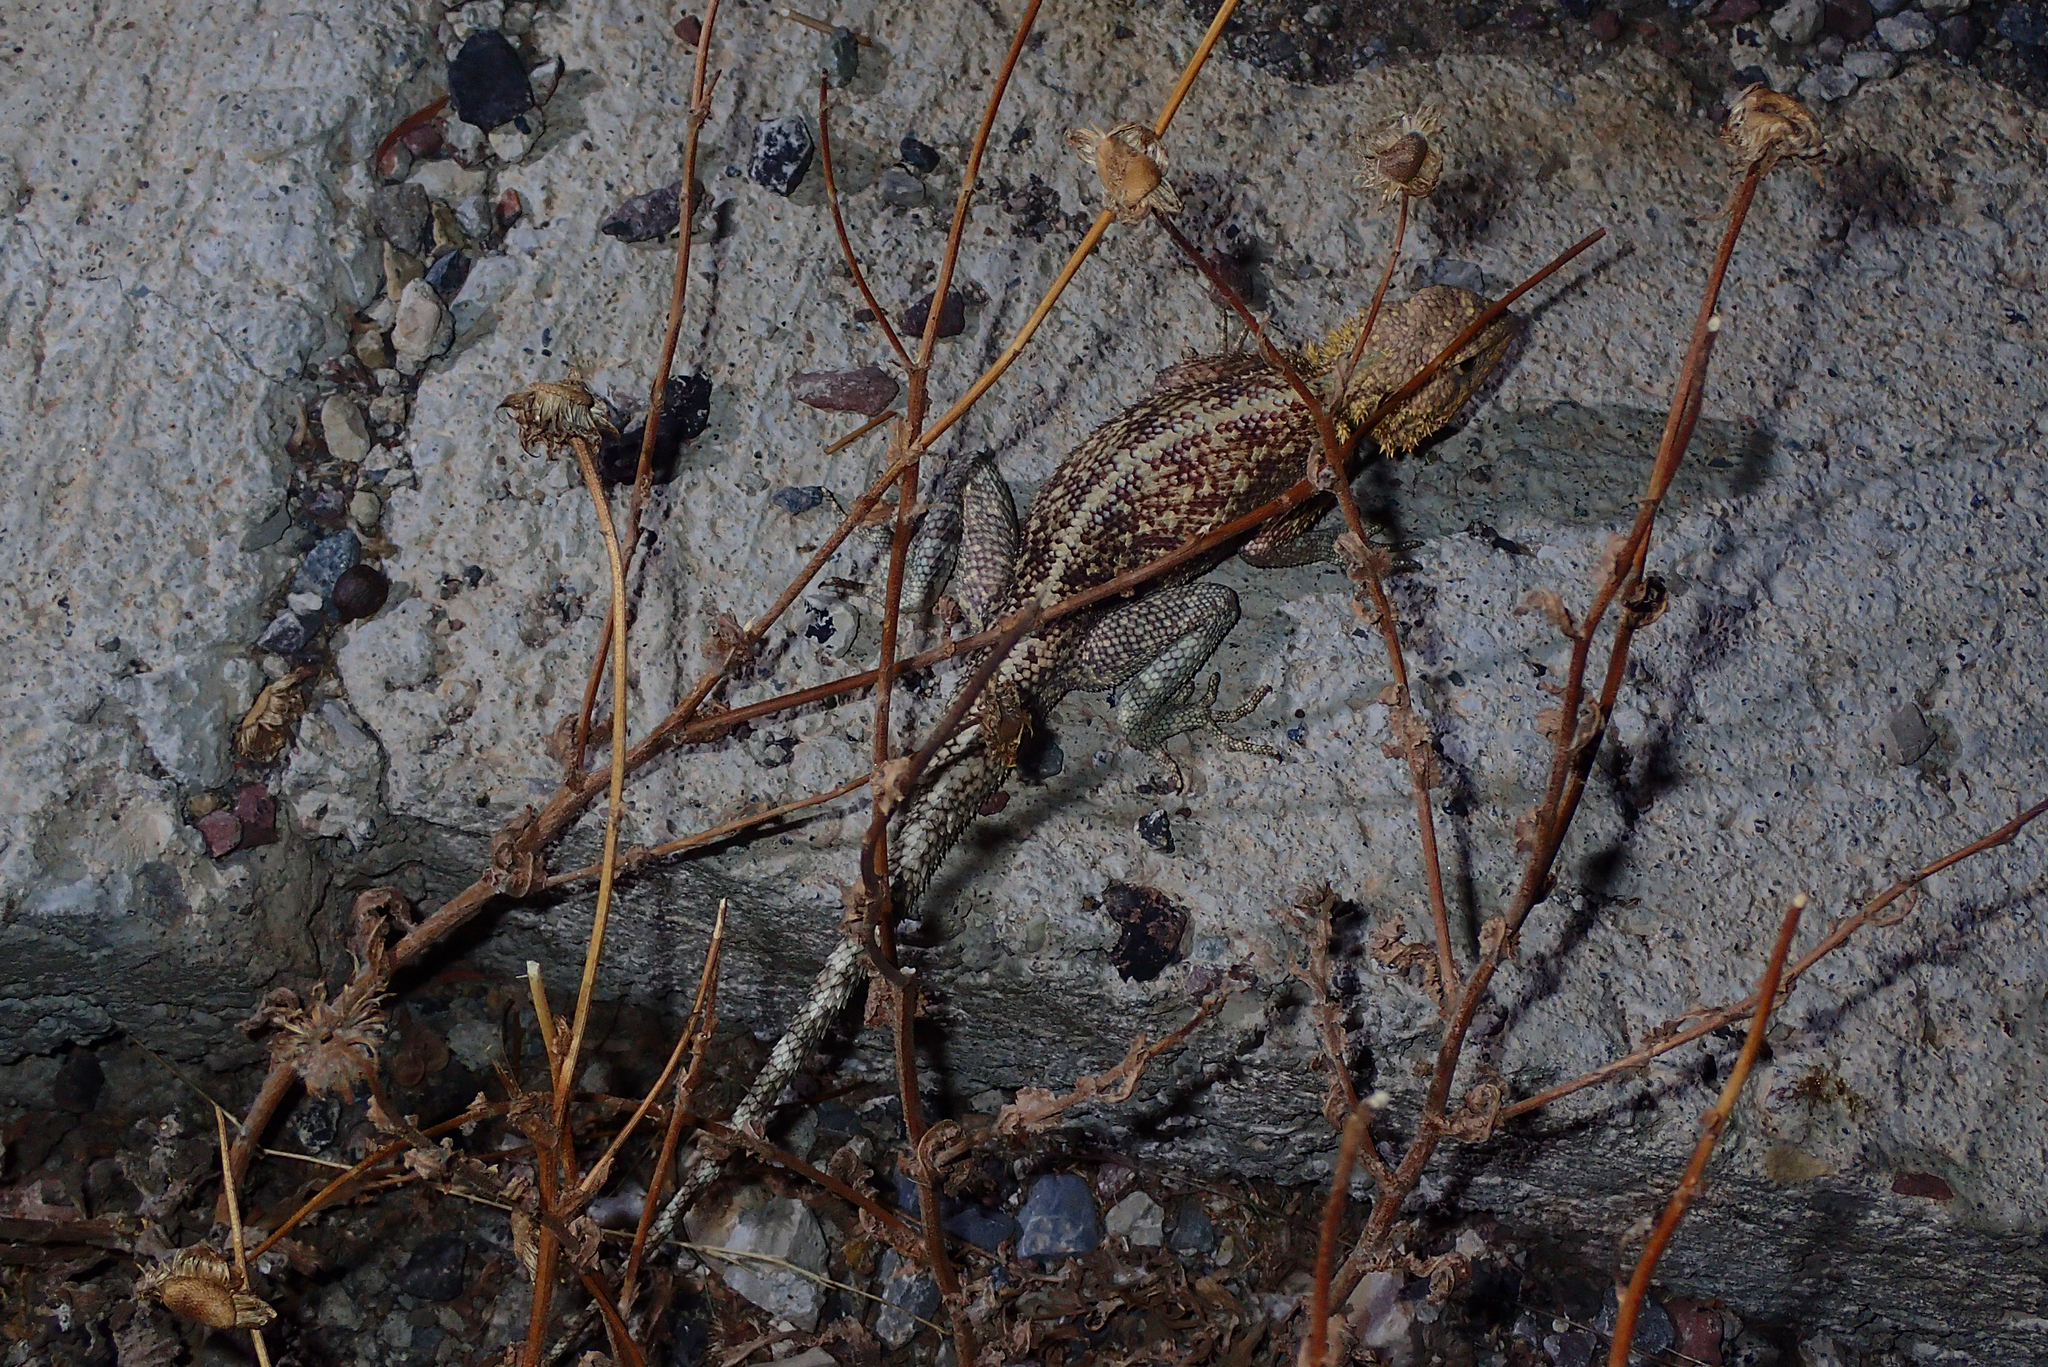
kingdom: Animalia
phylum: Chordata
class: Squamata
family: Agamidae
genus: Agama
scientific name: Agama impalearis
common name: Bibron's agama
